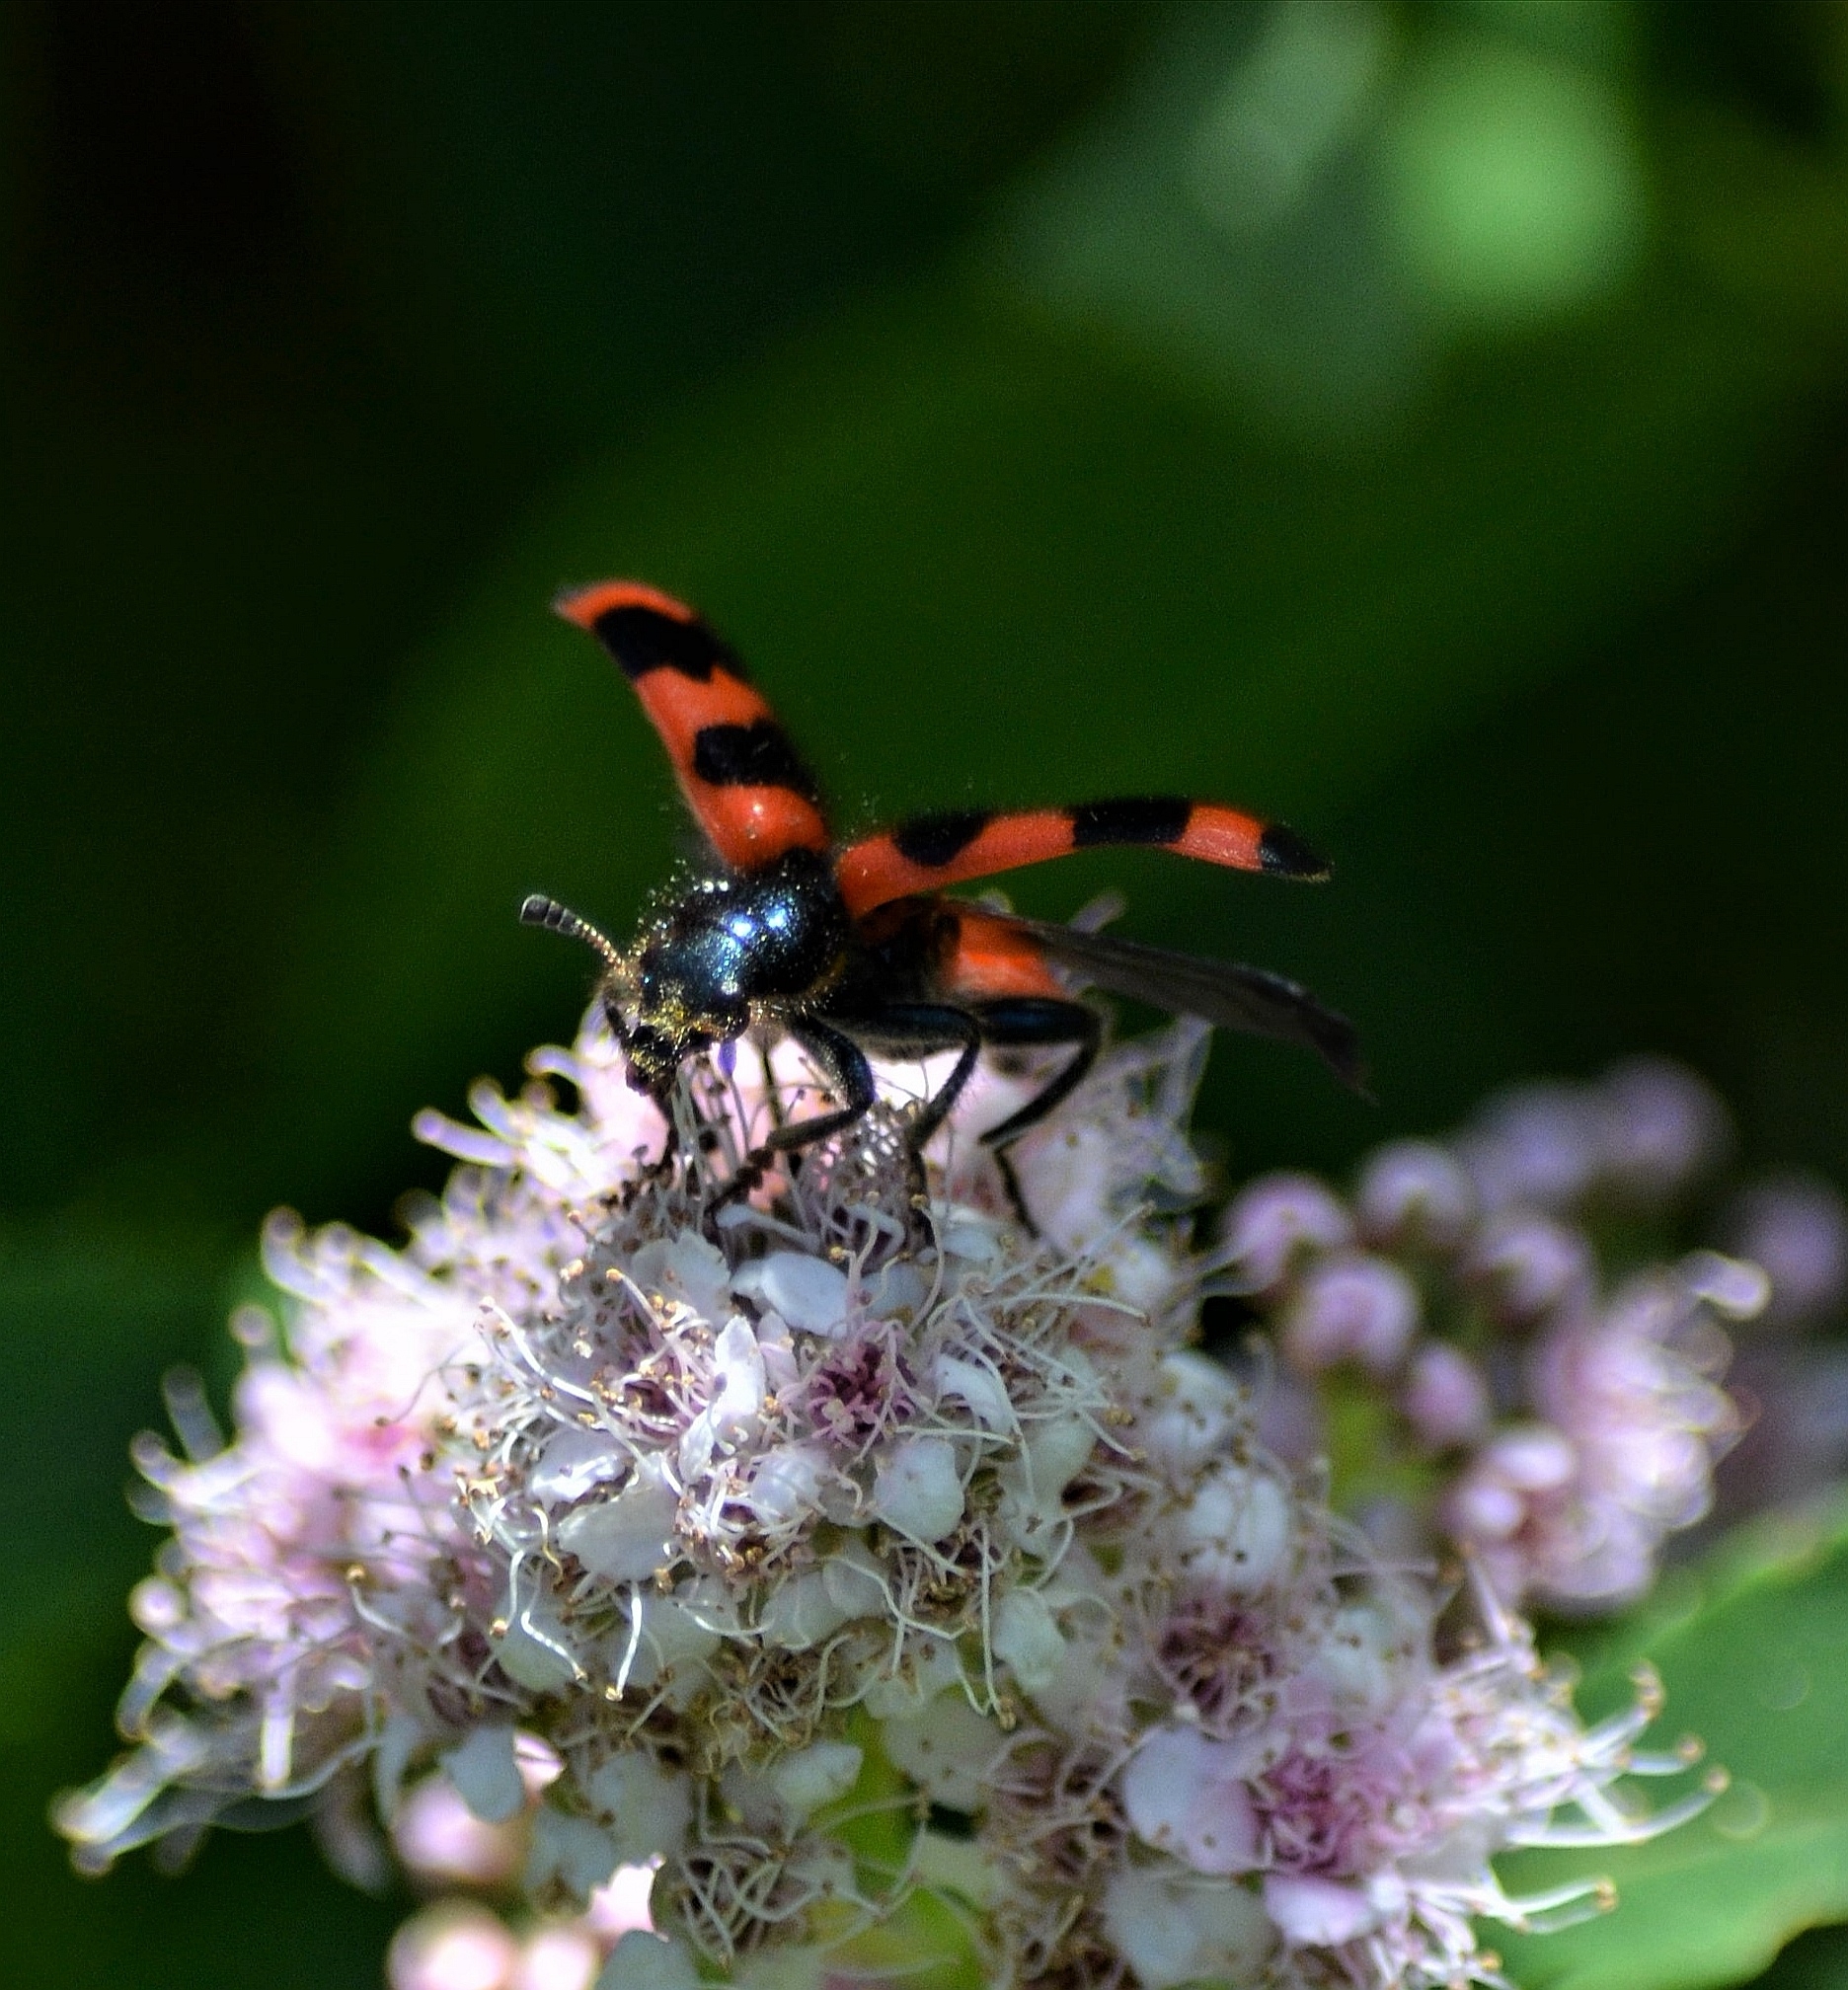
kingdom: Animalia
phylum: Arthropoda
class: Insecta
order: Coleoptera
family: Cleridae
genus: Trichodes
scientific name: Trichodes apiarius
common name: Bee-eating beetle
